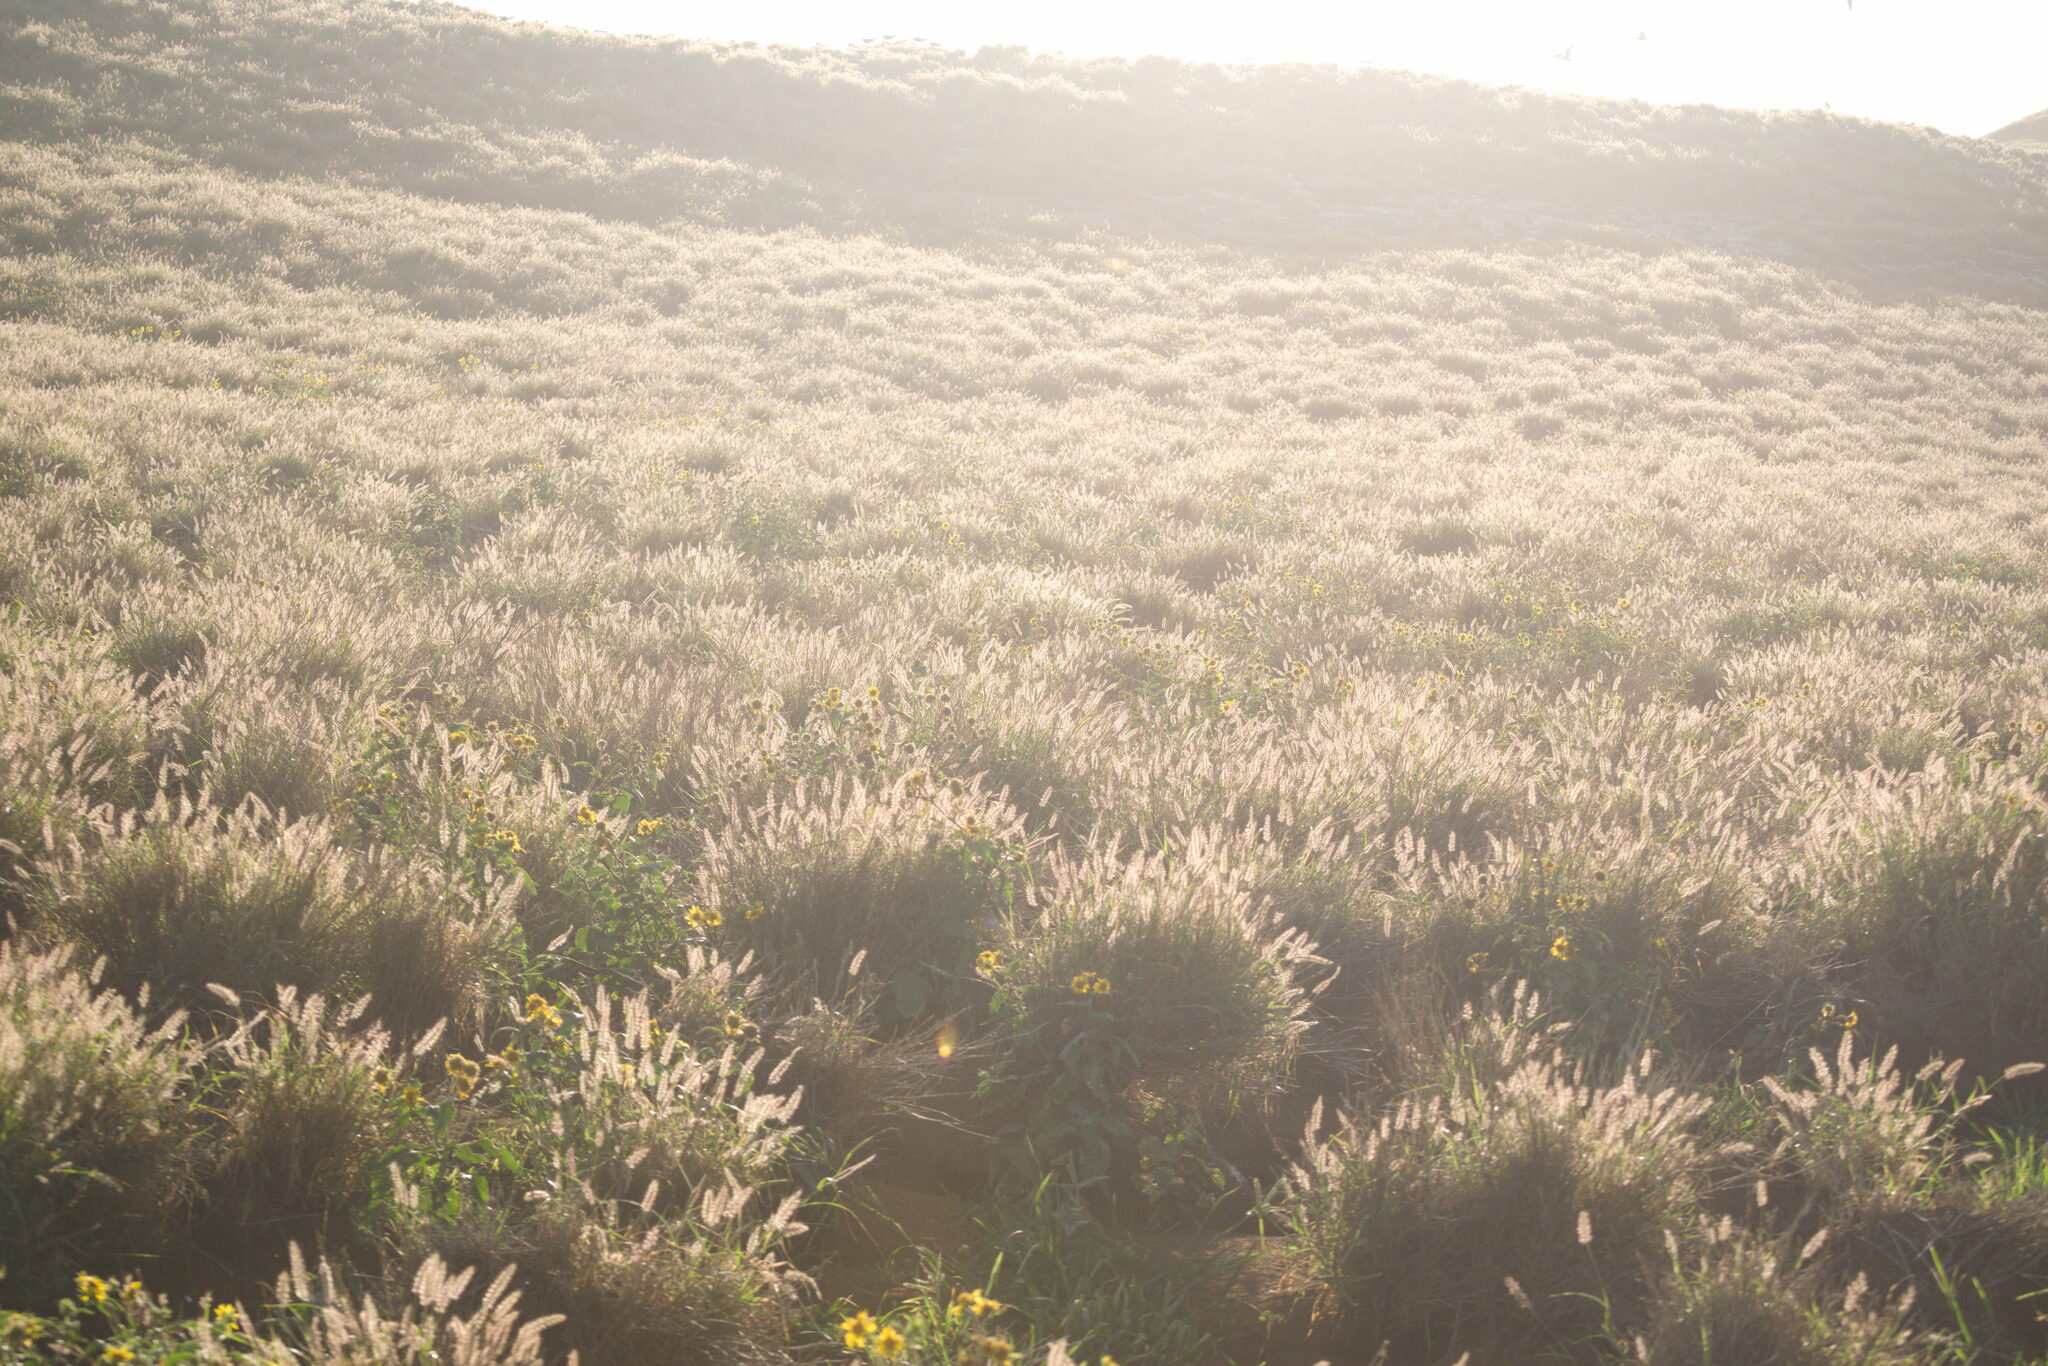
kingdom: Plantae
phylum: Tracheophyta
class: Liliopsida
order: Poales
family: Poaceae
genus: Cenchrus
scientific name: Cenchrus ciliaris
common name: Buffelgrass
